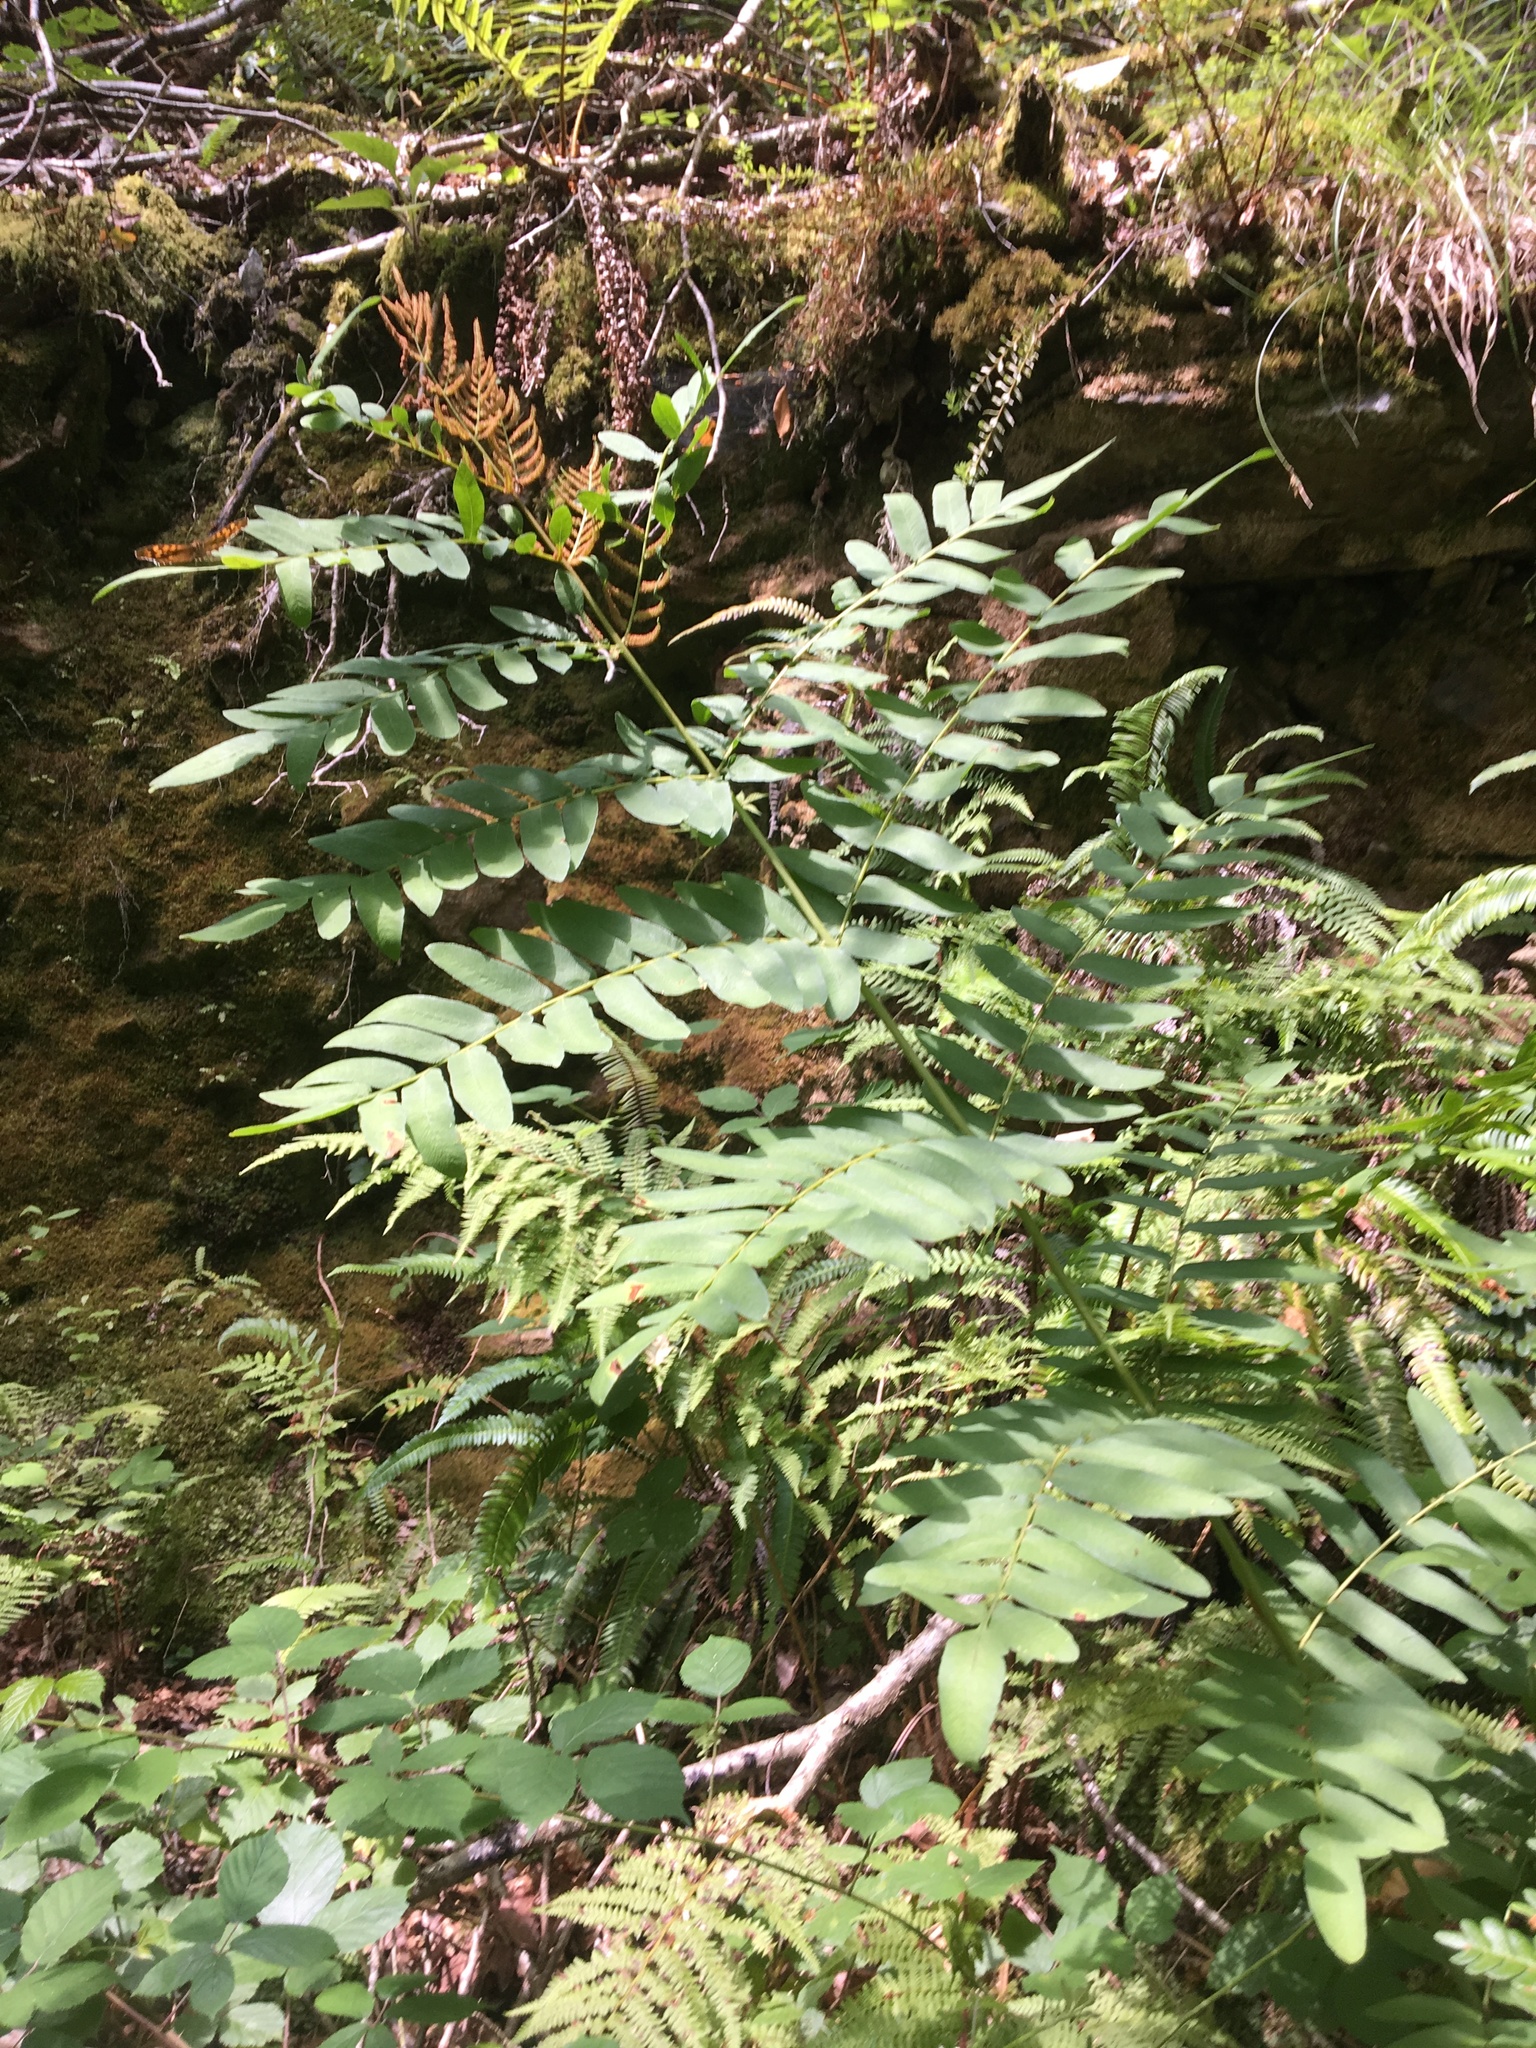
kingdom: Plantae
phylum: Tracheophyta
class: Polypodiopsida
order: Osmundales
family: Osmundaceae
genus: Osmunda
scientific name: Osmunda regalis
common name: Royal fern
